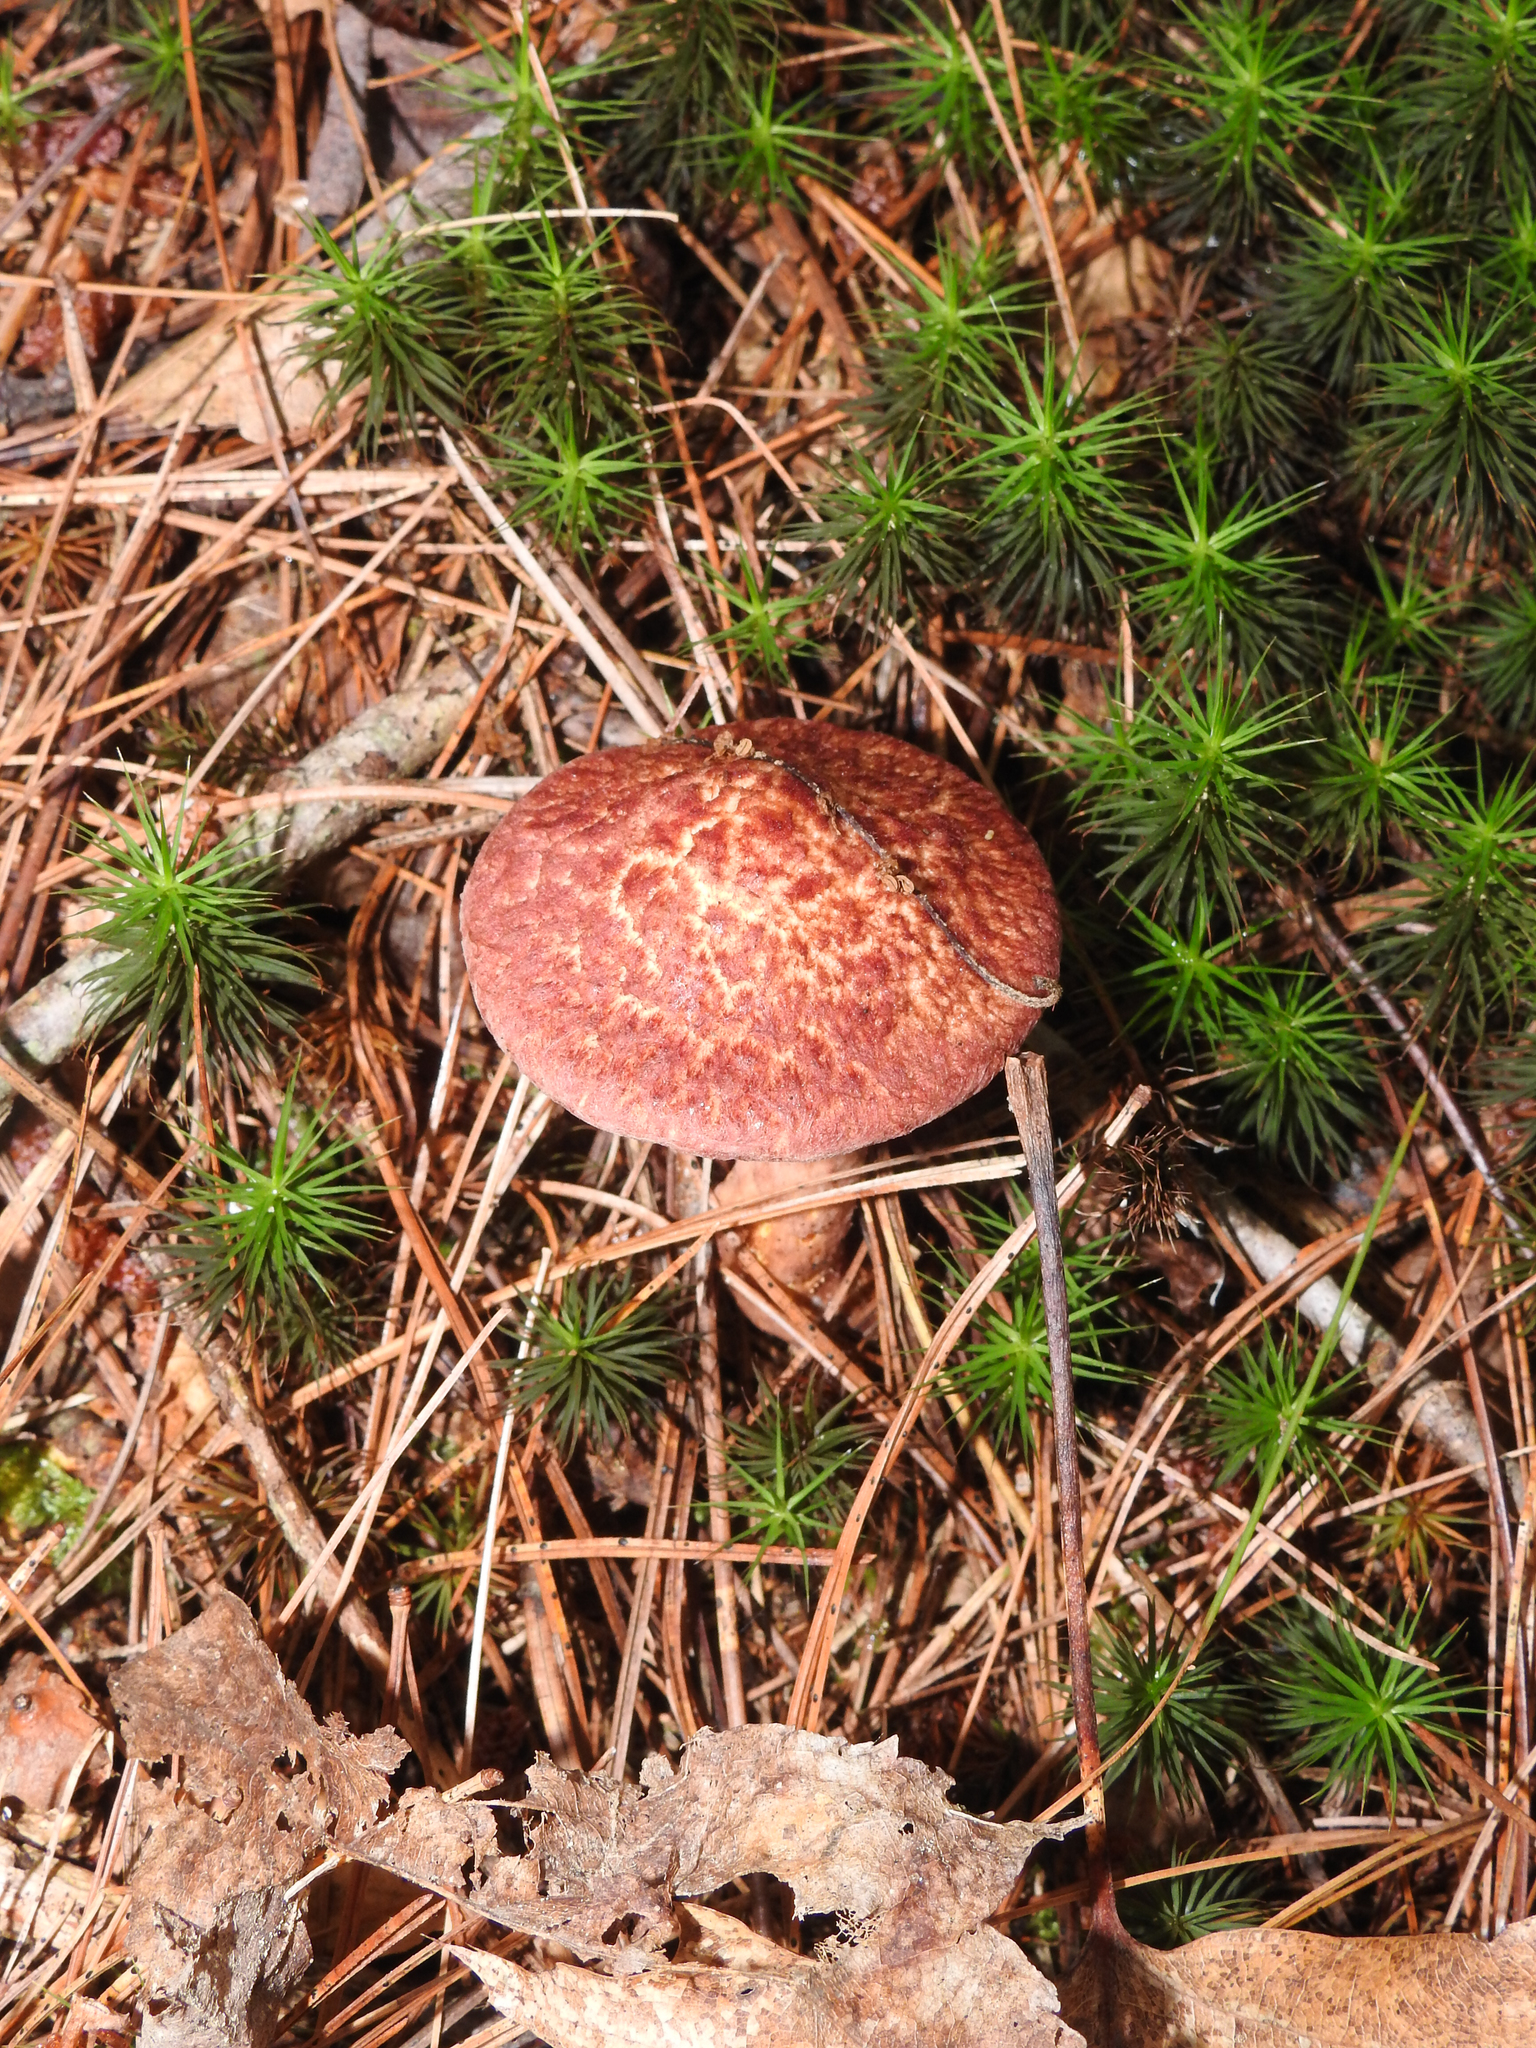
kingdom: Fungi
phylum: Basidiomycota
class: Agaricomycetes
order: Boletales
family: Suillaceae
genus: Suillus
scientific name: Suillus spraguei
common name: Painted suillus
